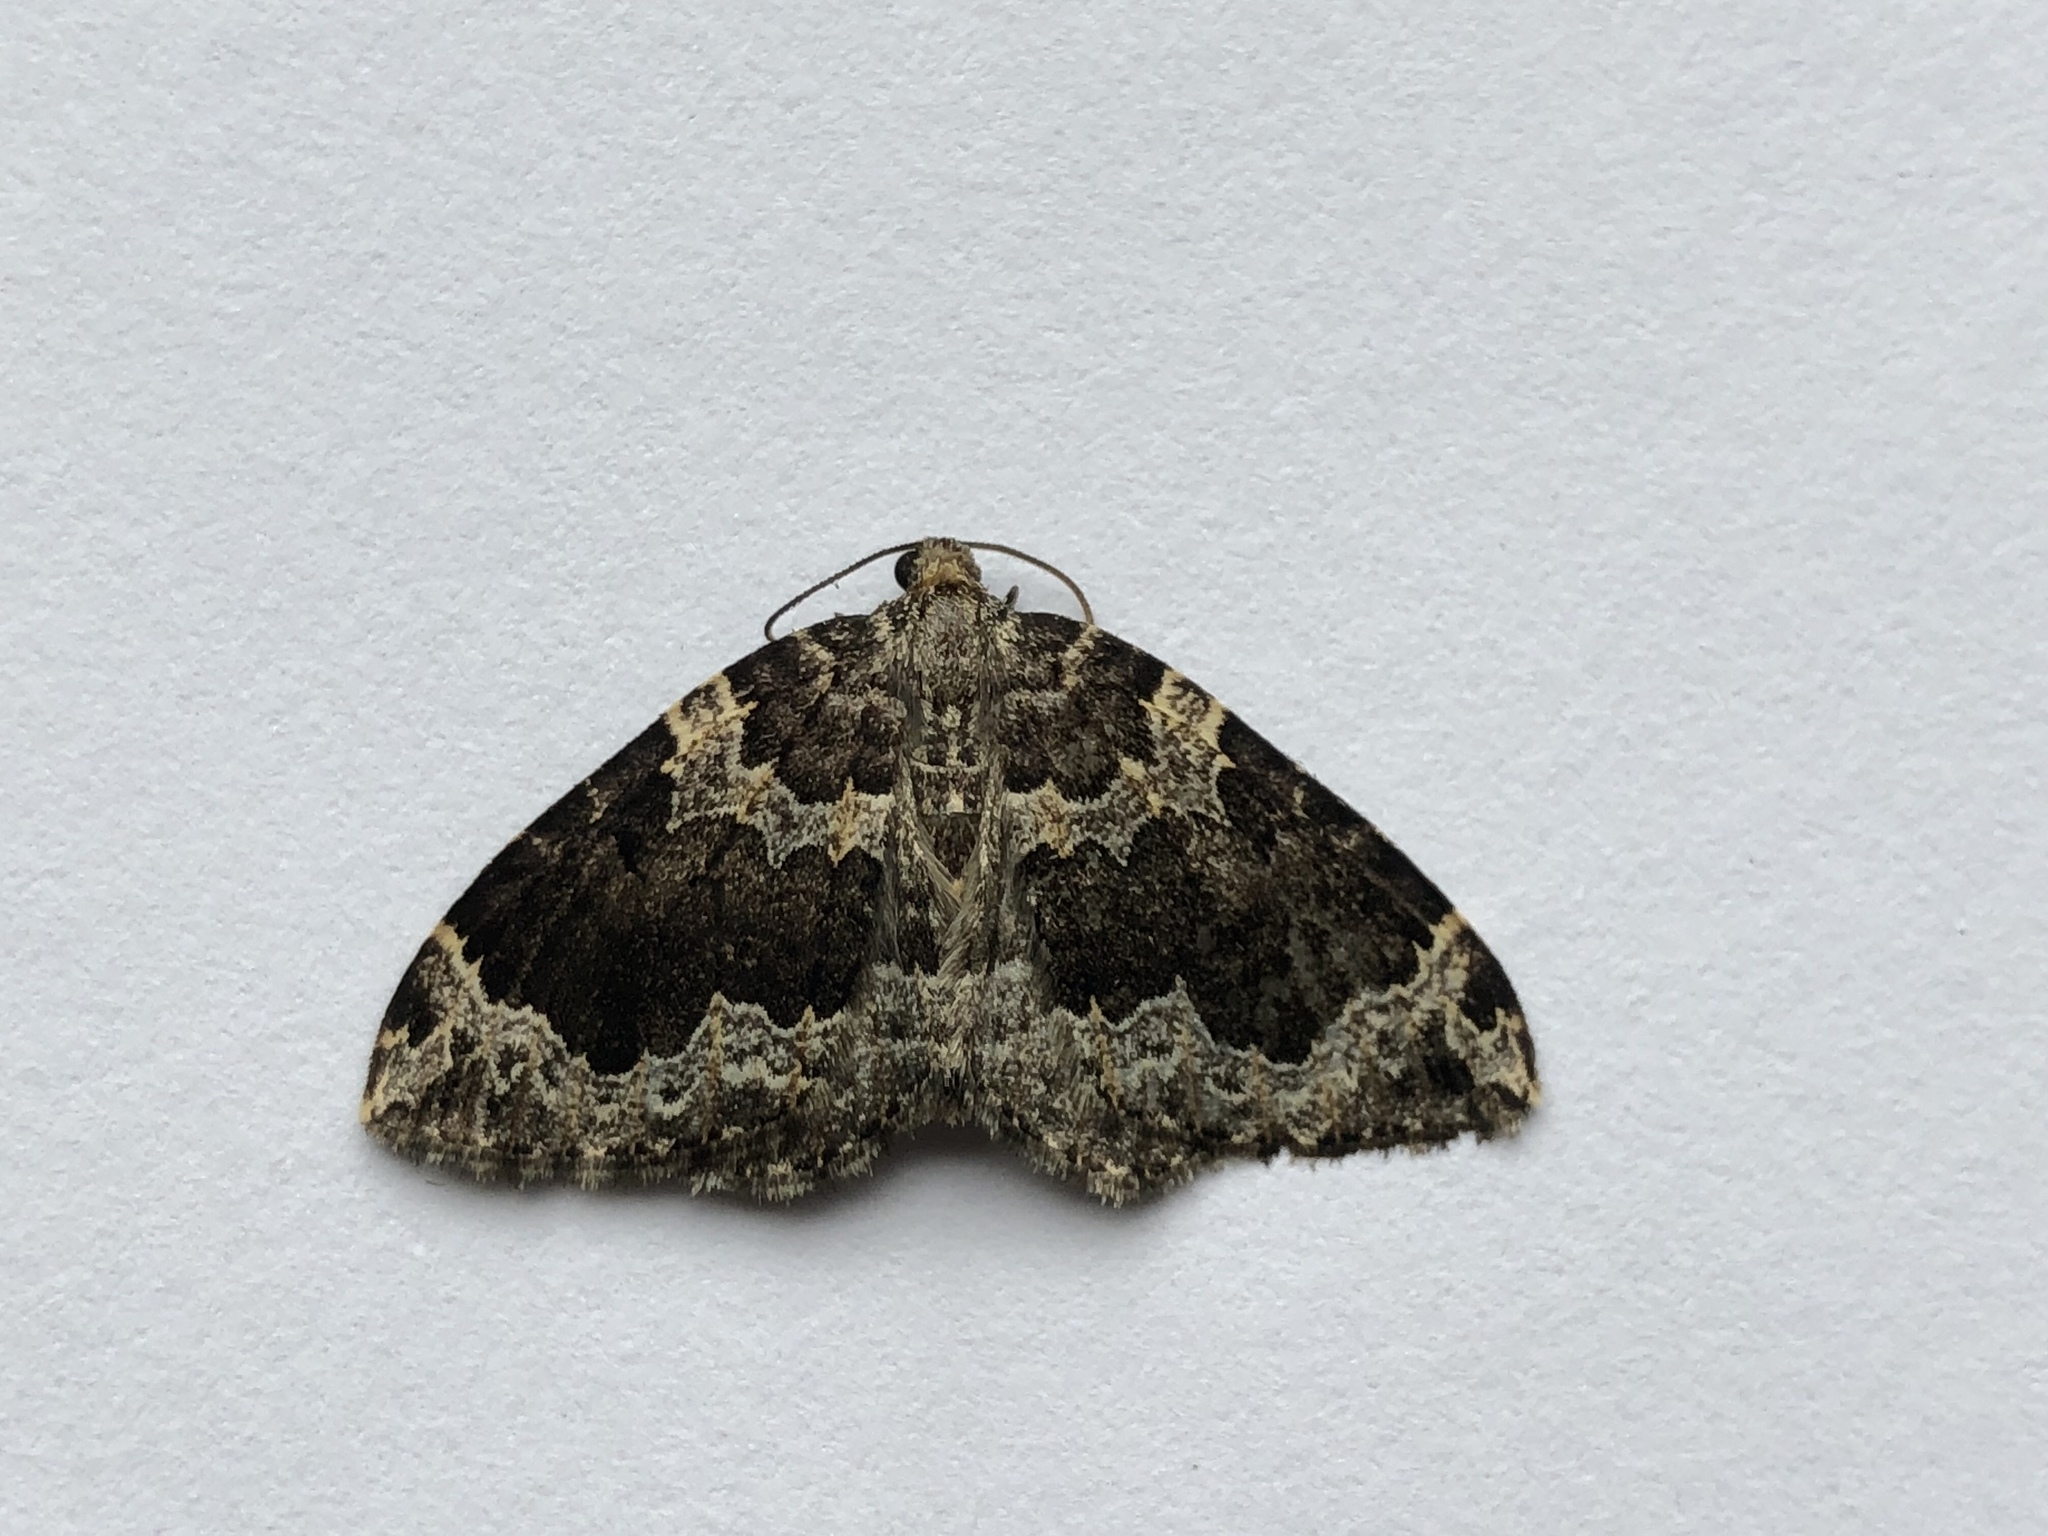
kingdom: Animalia
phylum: Arthropoda
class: Insecta
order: Lepidoptera
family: Geometridae
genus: Eustroma
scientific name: Eustroma semiatrata
